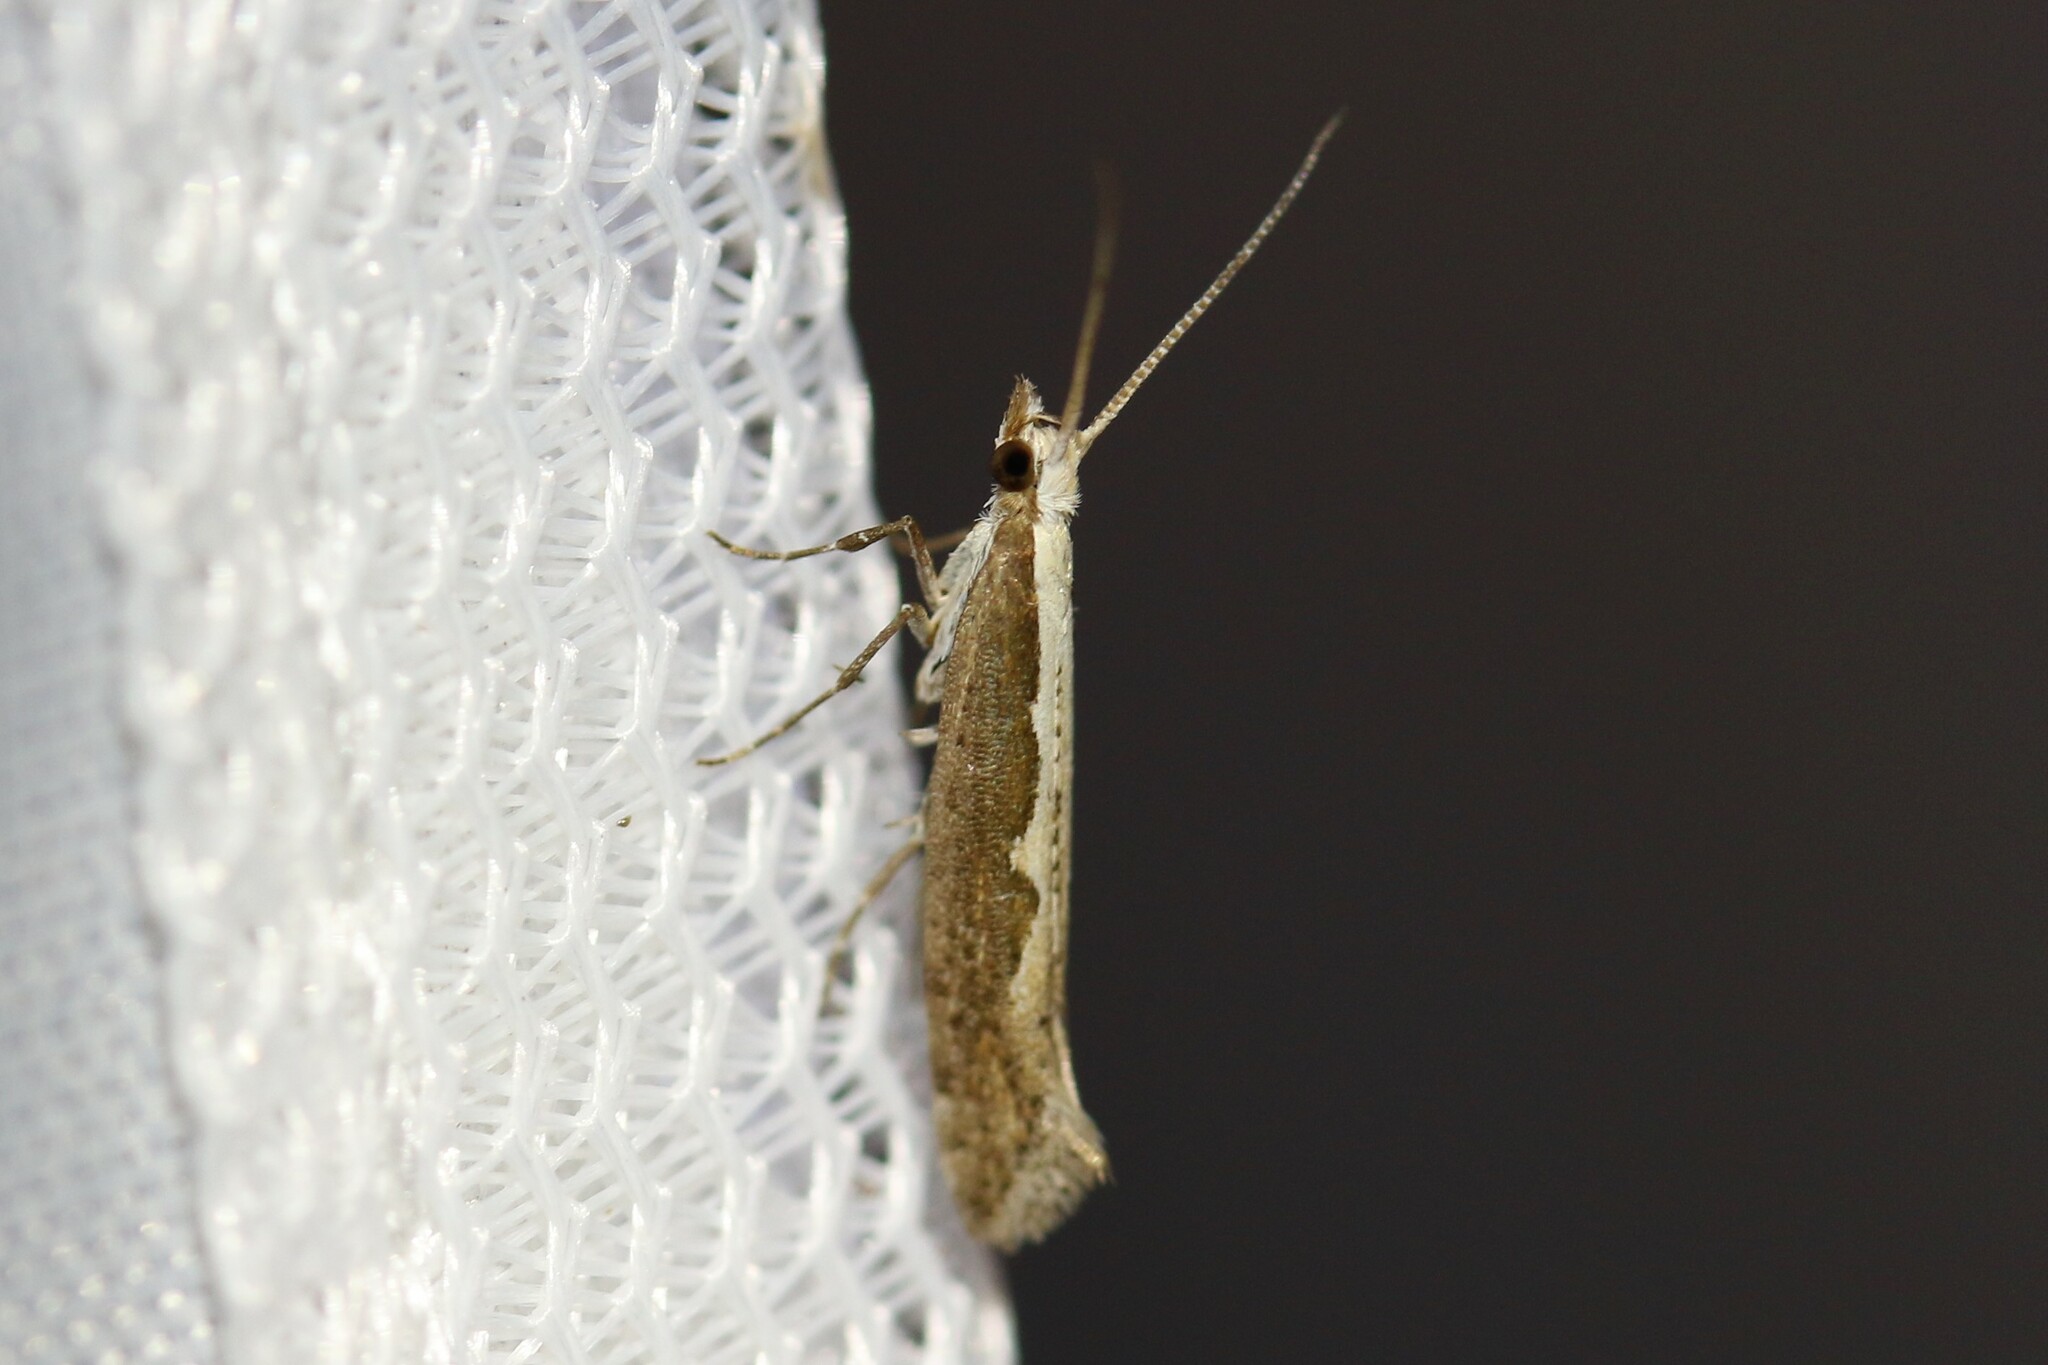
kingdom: Animalia
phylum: Arthropoda
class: Insecta
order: Lepidoptera
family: Plutellidae
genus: Plutella
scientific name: Plutella xylostella
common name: Diamond-back moth
